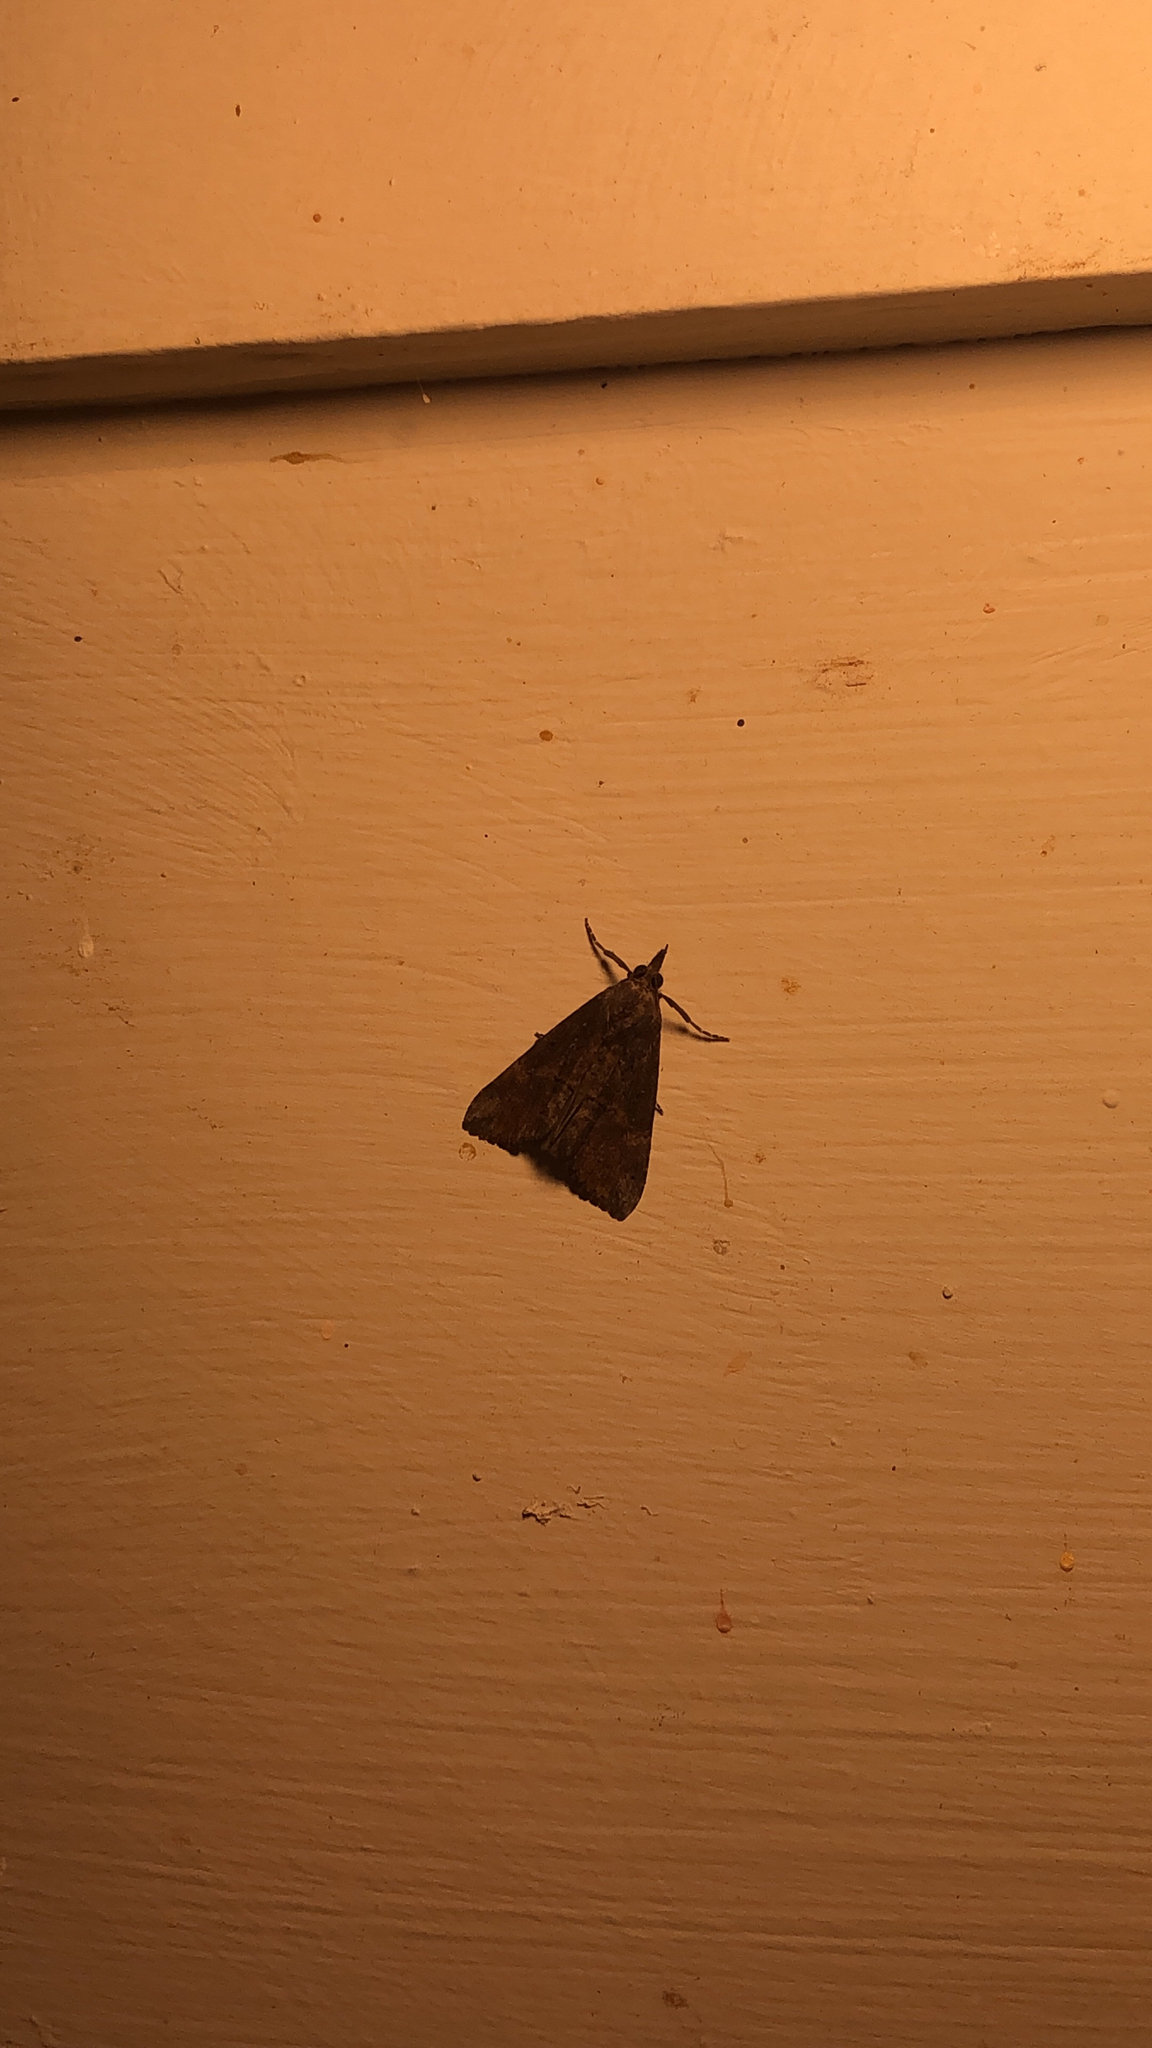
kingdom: Animalia
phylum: Arthropoda
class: Insecta
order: Lepidoptera
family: Erebidae
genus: Hypena
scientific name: Hypena scabra
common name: Green cloverworm
